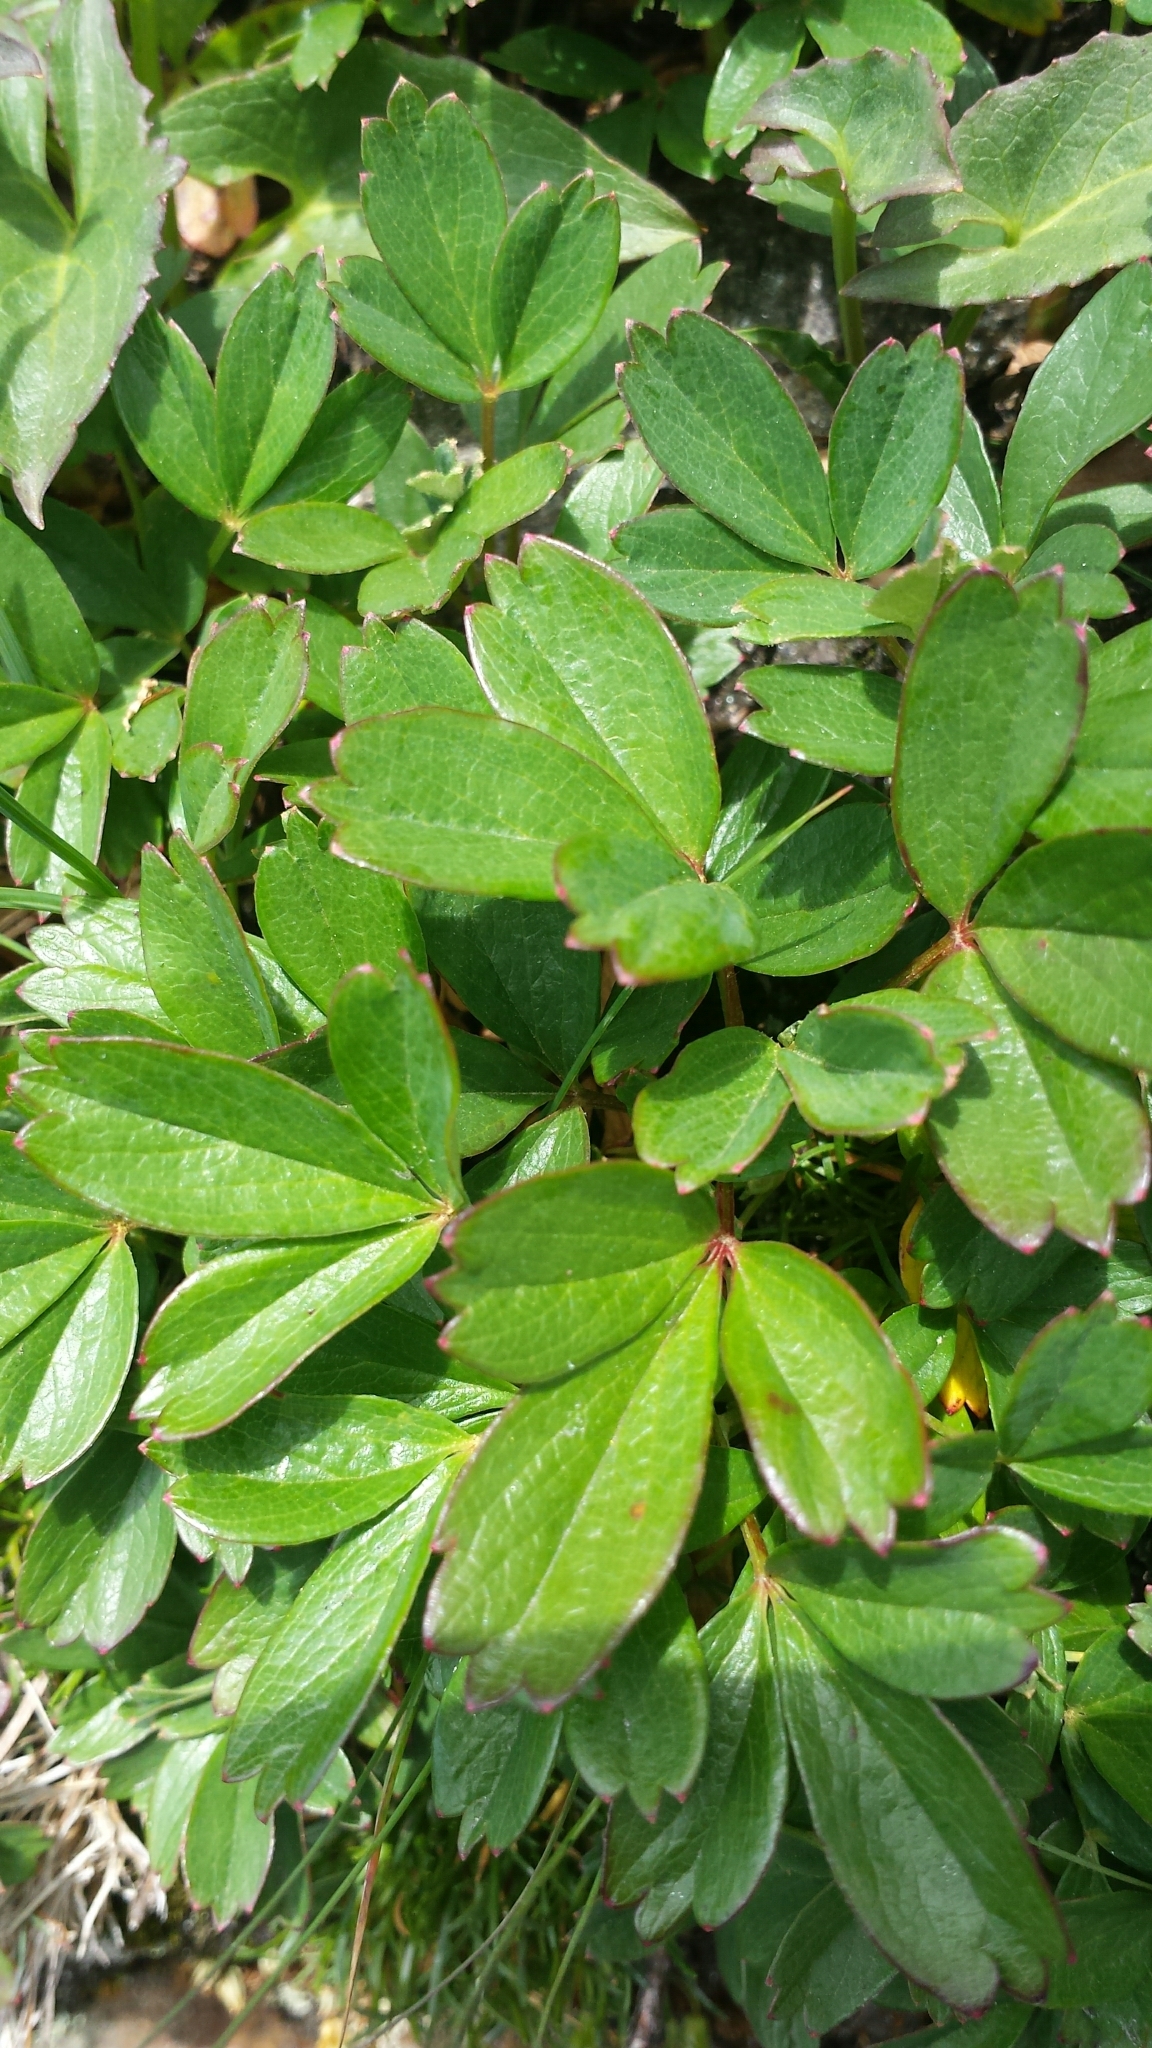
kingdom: Plantae
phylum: Tracheophyta
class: Magnoliopsida
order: Rosales
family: Rosaceae
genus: Sibbaldia
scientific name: Sibbaldia tridentata
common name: Three-toothed cinquefoil
